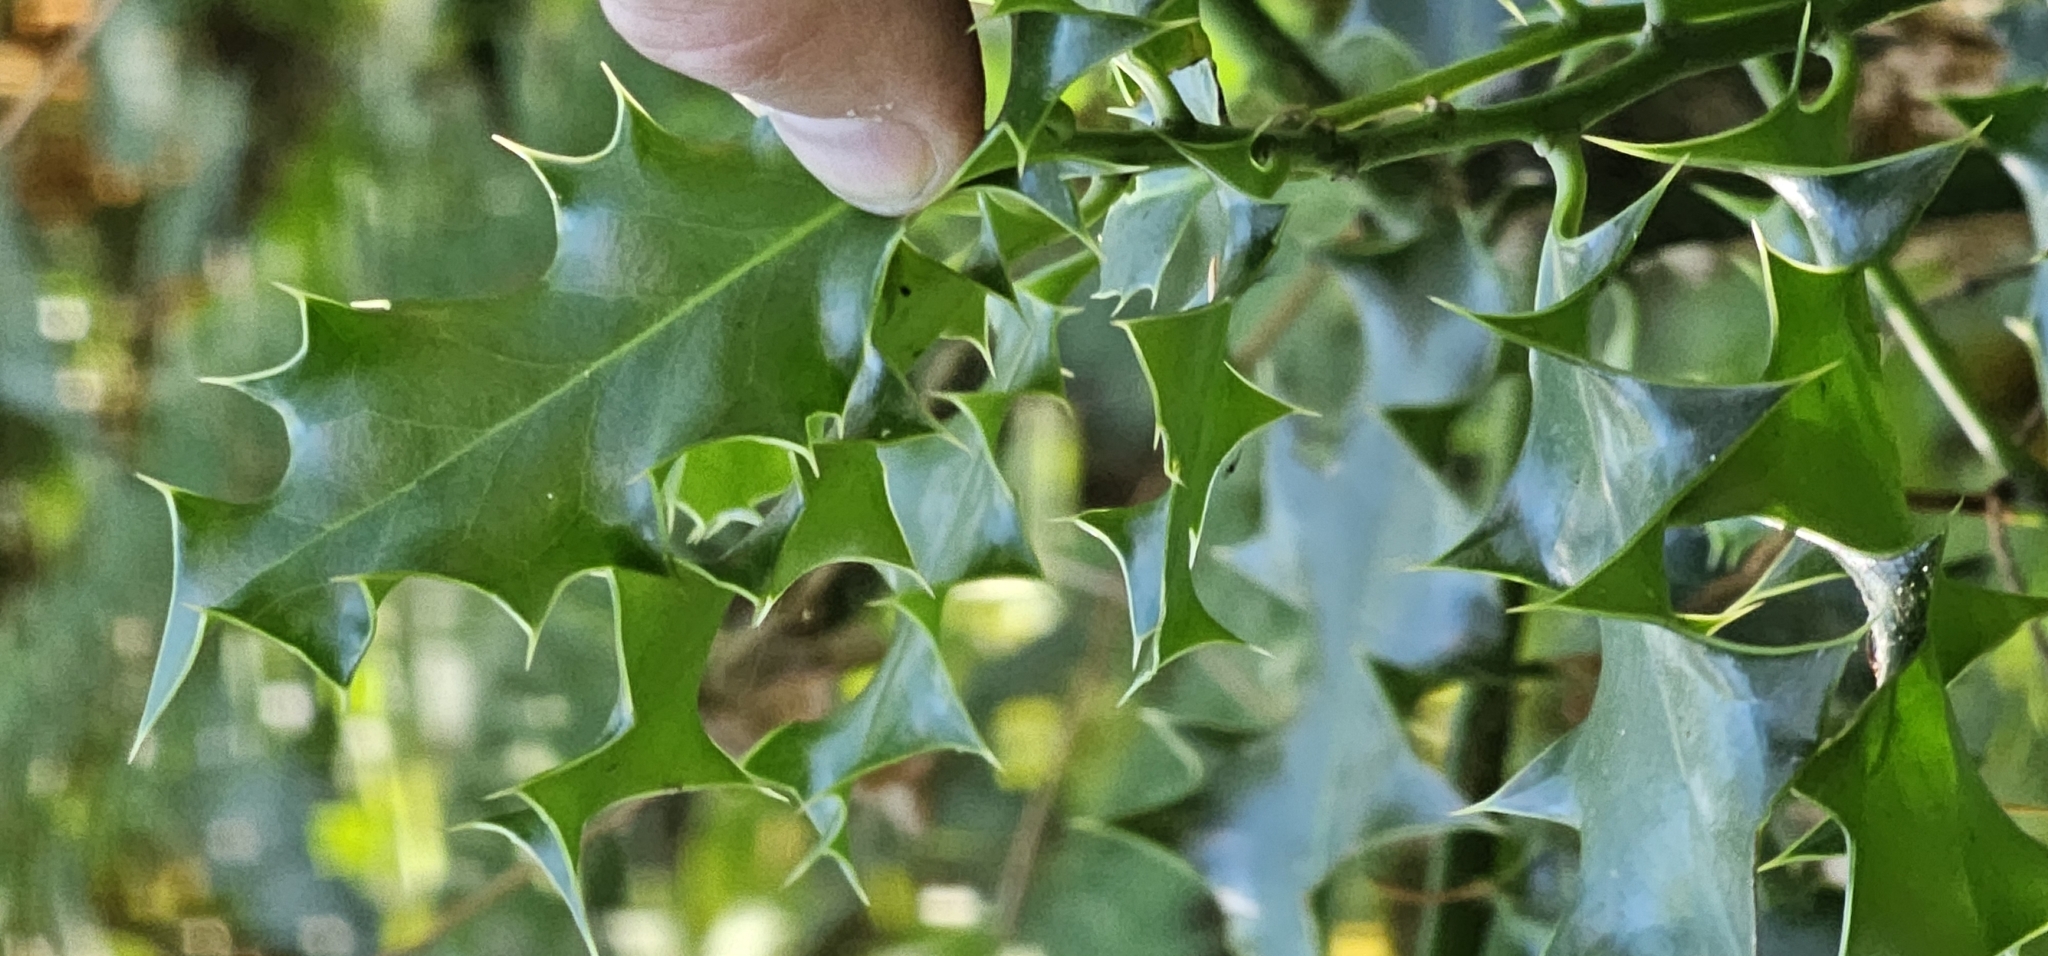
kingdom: Plantae
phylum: Tracheophyta
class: Magnoliopsida
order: Aquifoliales
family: Aquifoliaceae
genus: Ilex
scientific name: Ilex aquifolium
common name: English holly
